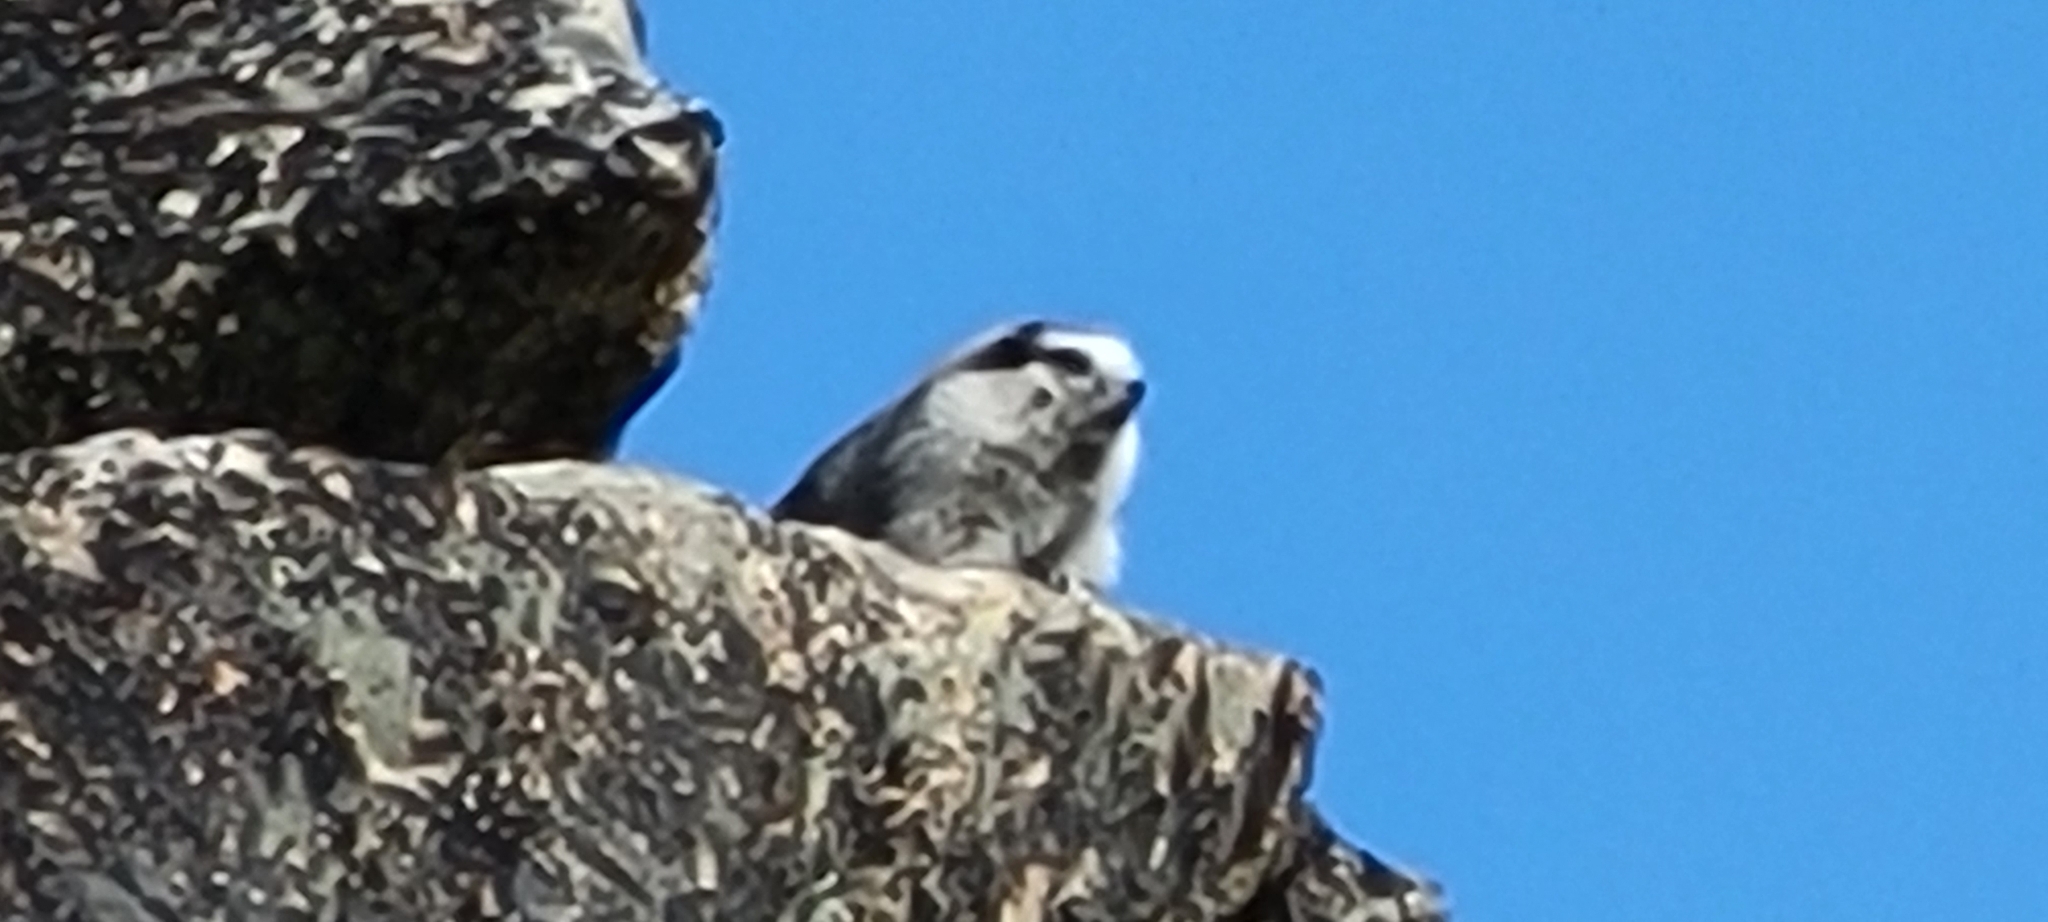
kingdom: Animalia
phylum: Chordata
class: Mammalia
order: Rodentia
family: Sciuridae
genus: Marmota
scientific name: Marmota caligata
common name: Hoary marmot
